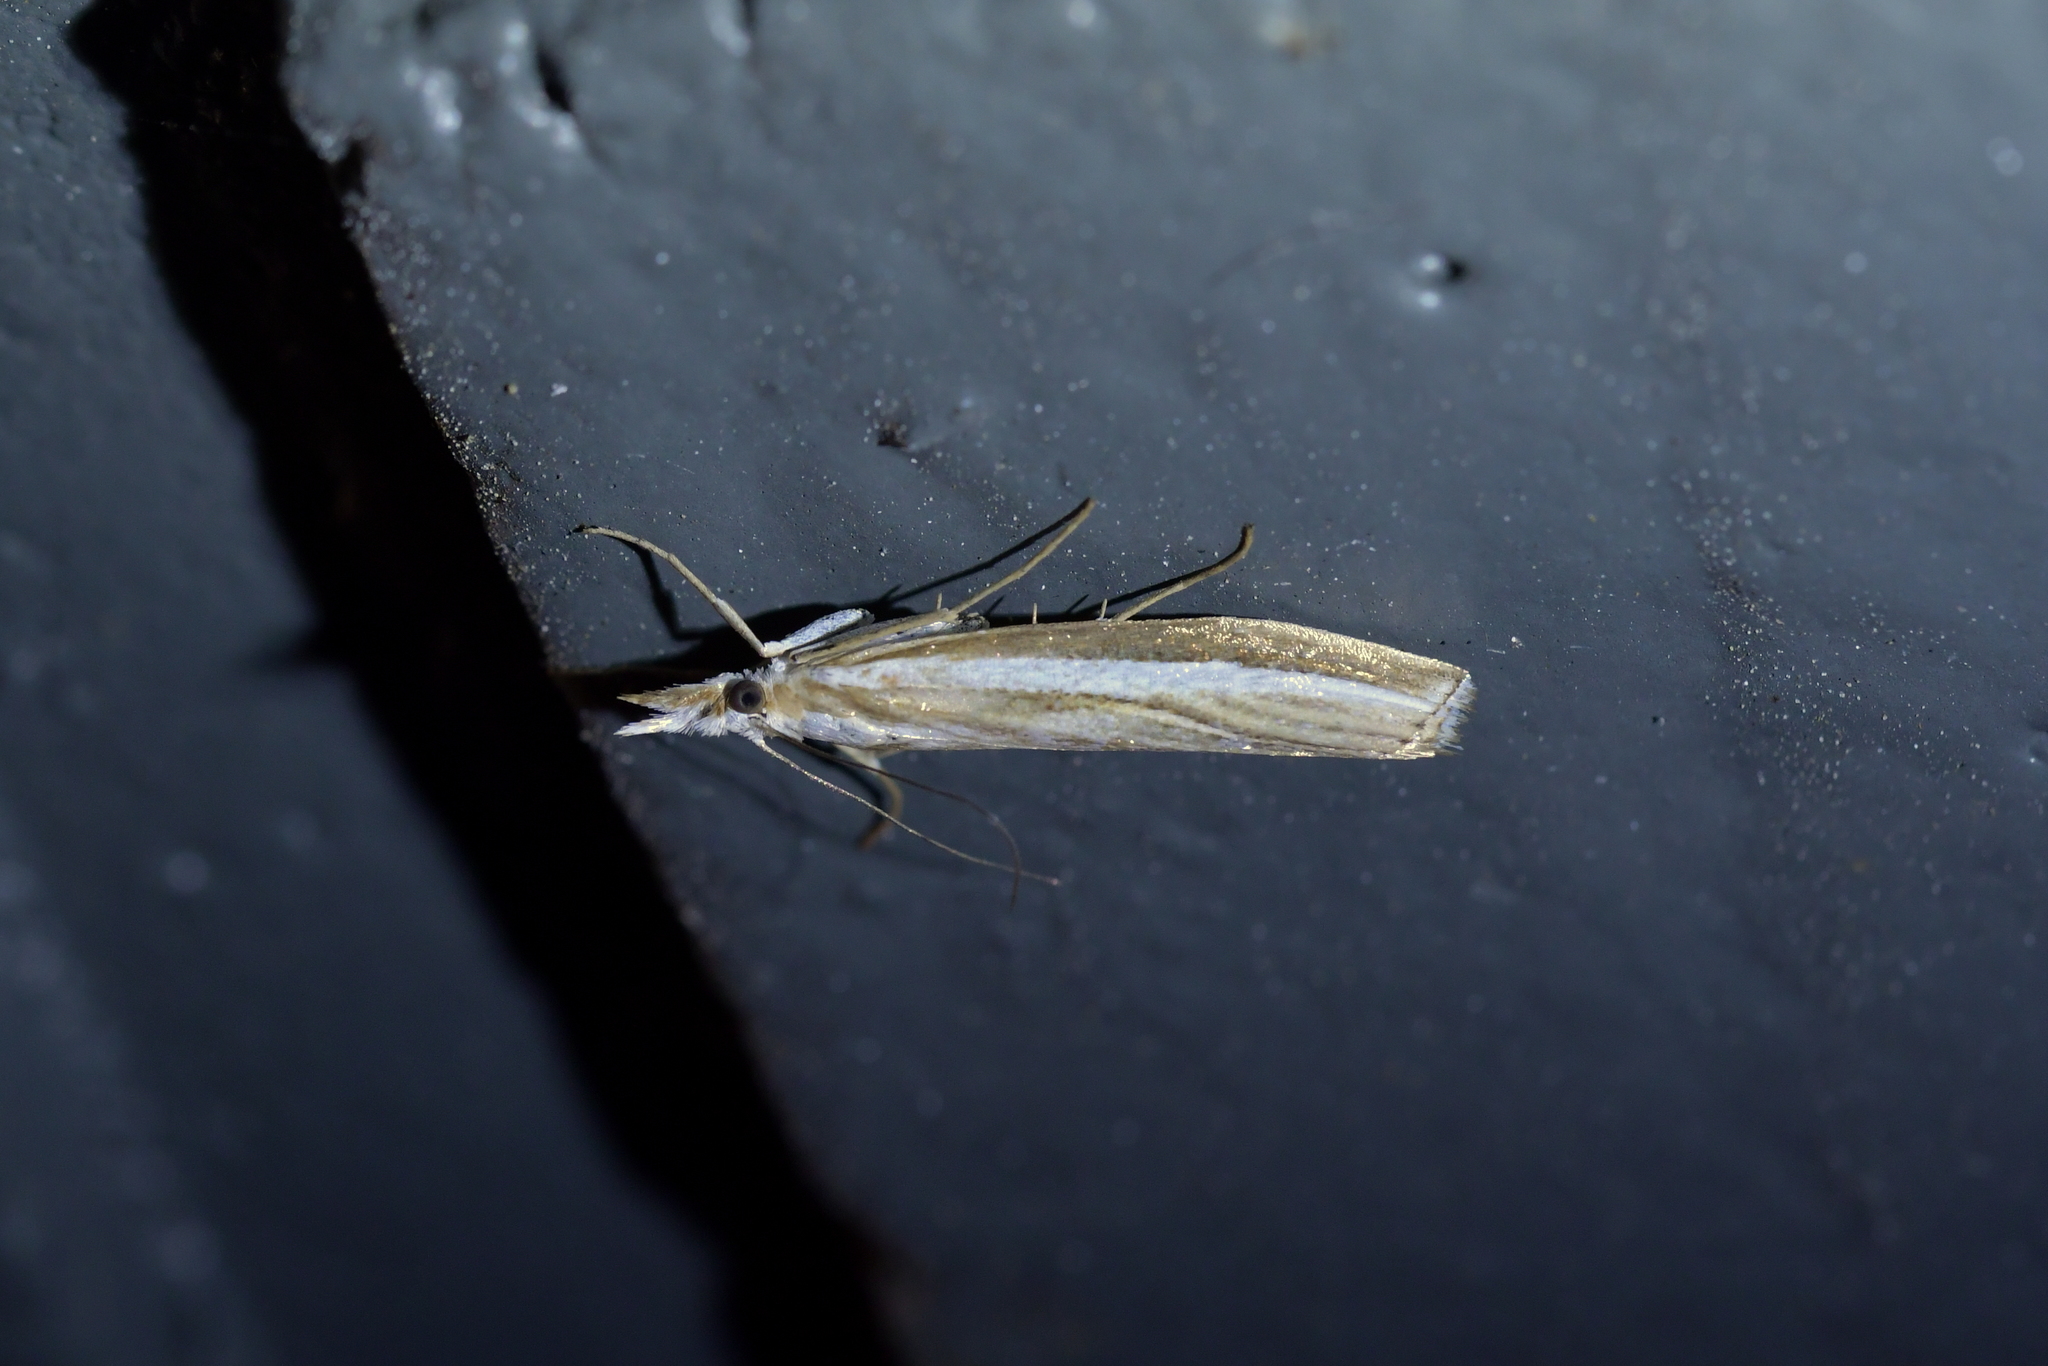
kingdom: Animalia
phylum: Arthropoda
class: Insecta
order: Lepidoptera
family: Crambidae
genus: Orocrambus
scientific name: Orocrambus vittellus
